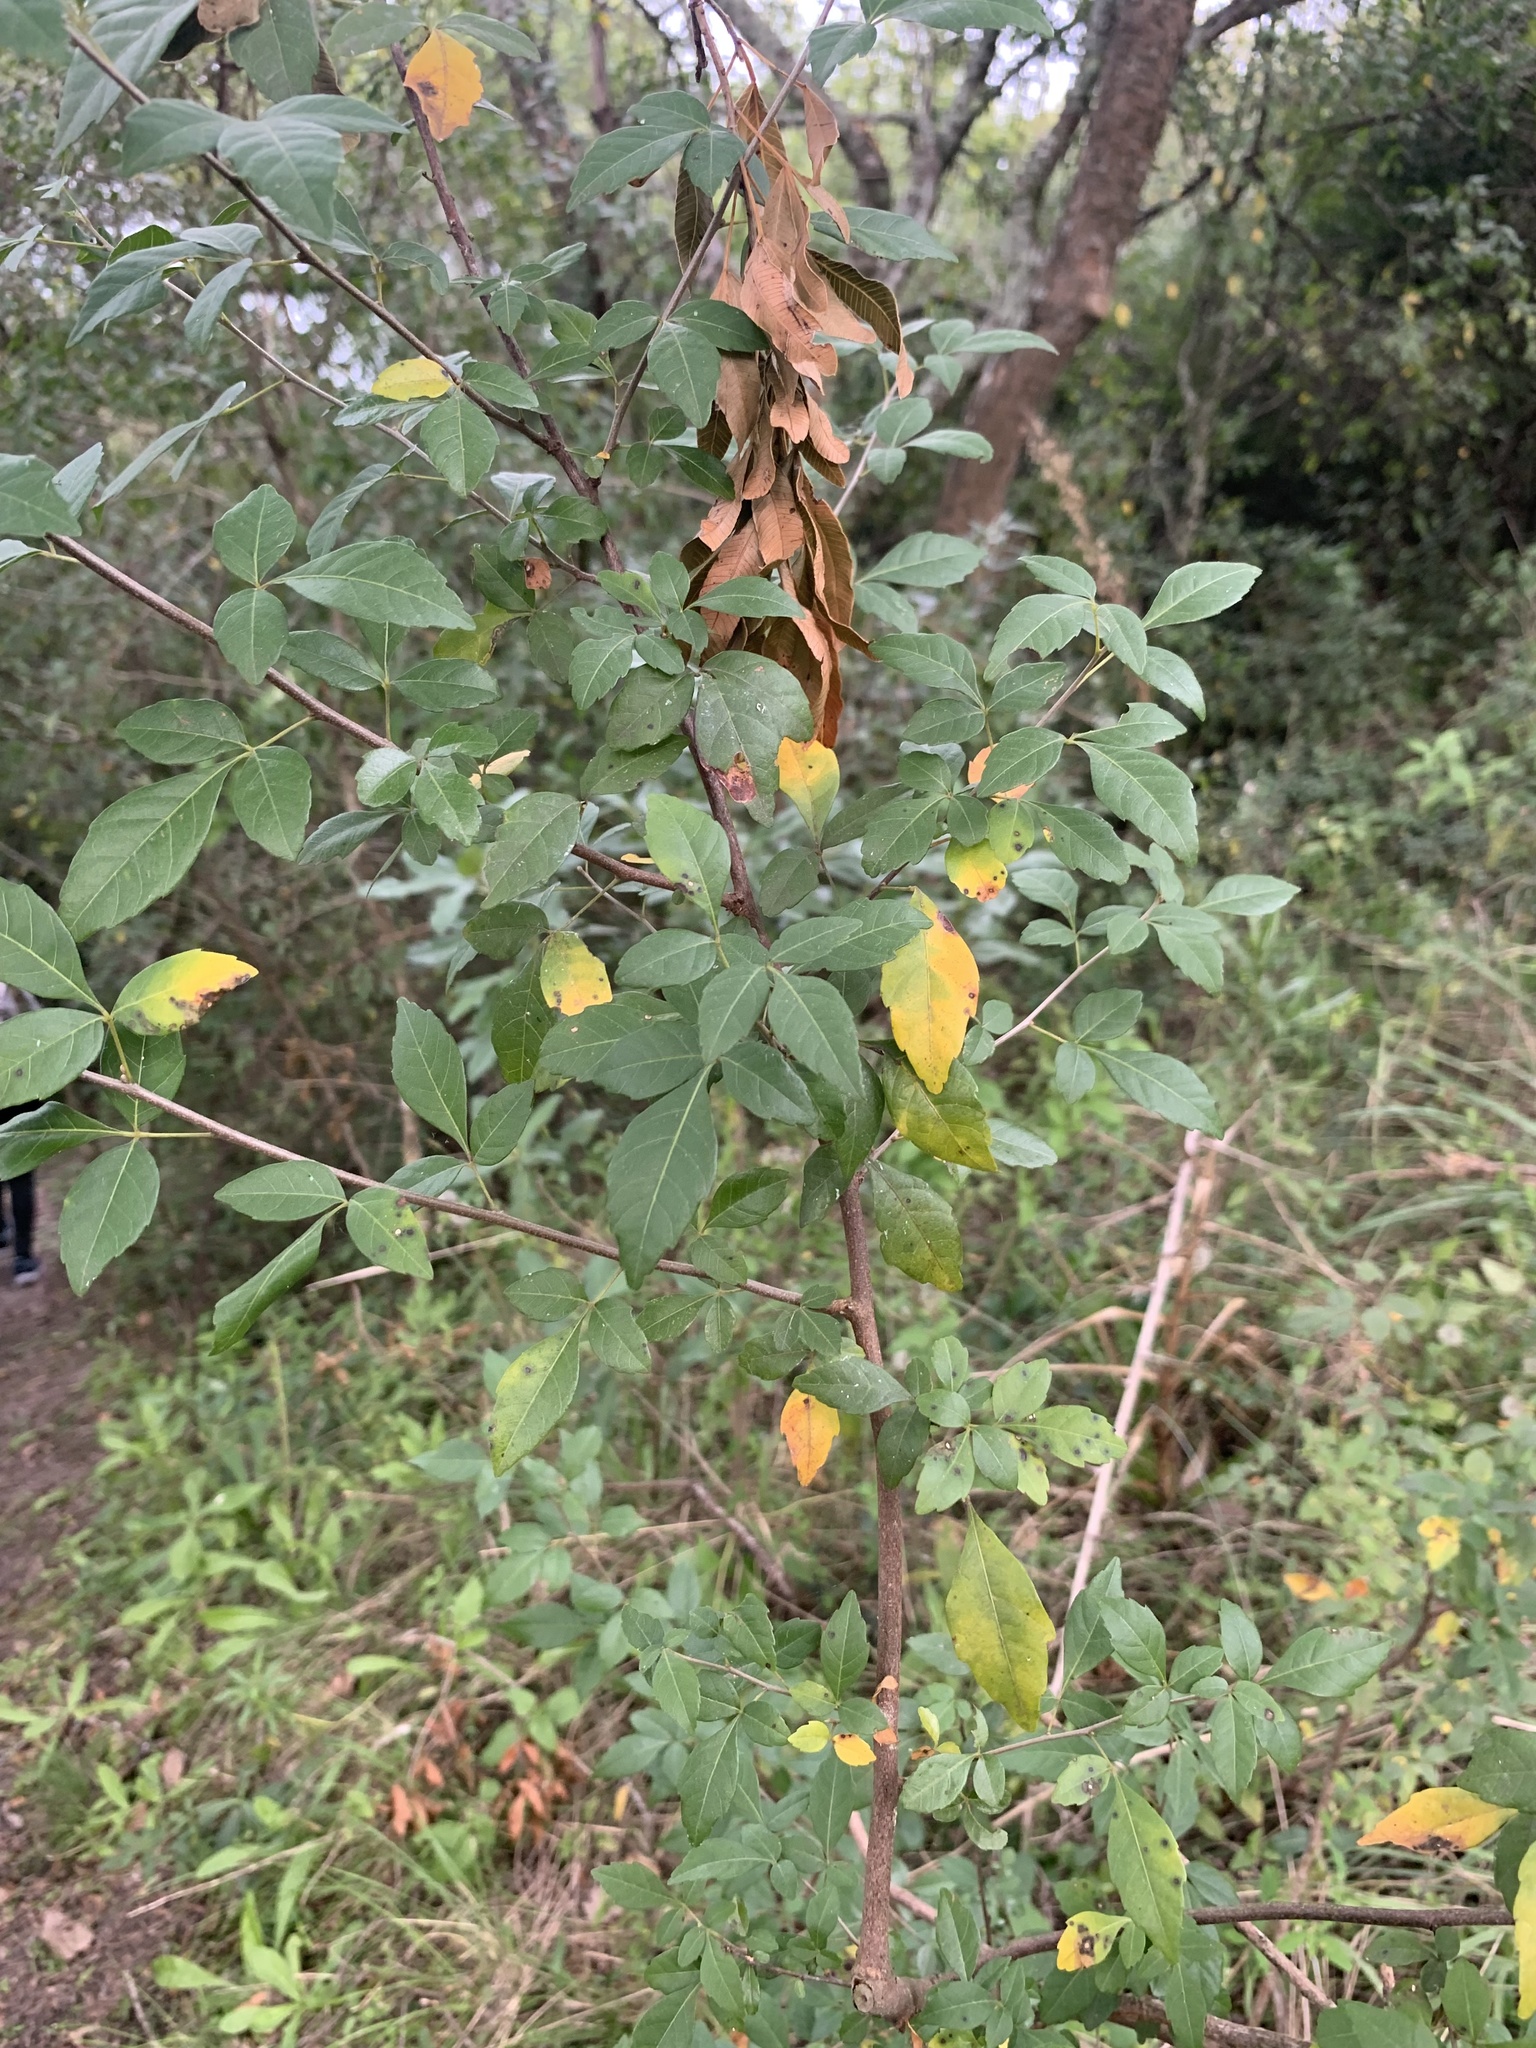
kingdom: Plantae
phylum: Tracheophyta
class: Magnoliopsida
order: Sapindales
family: Sapindaceae
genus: Allophylus
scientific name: Allophylus edulis
